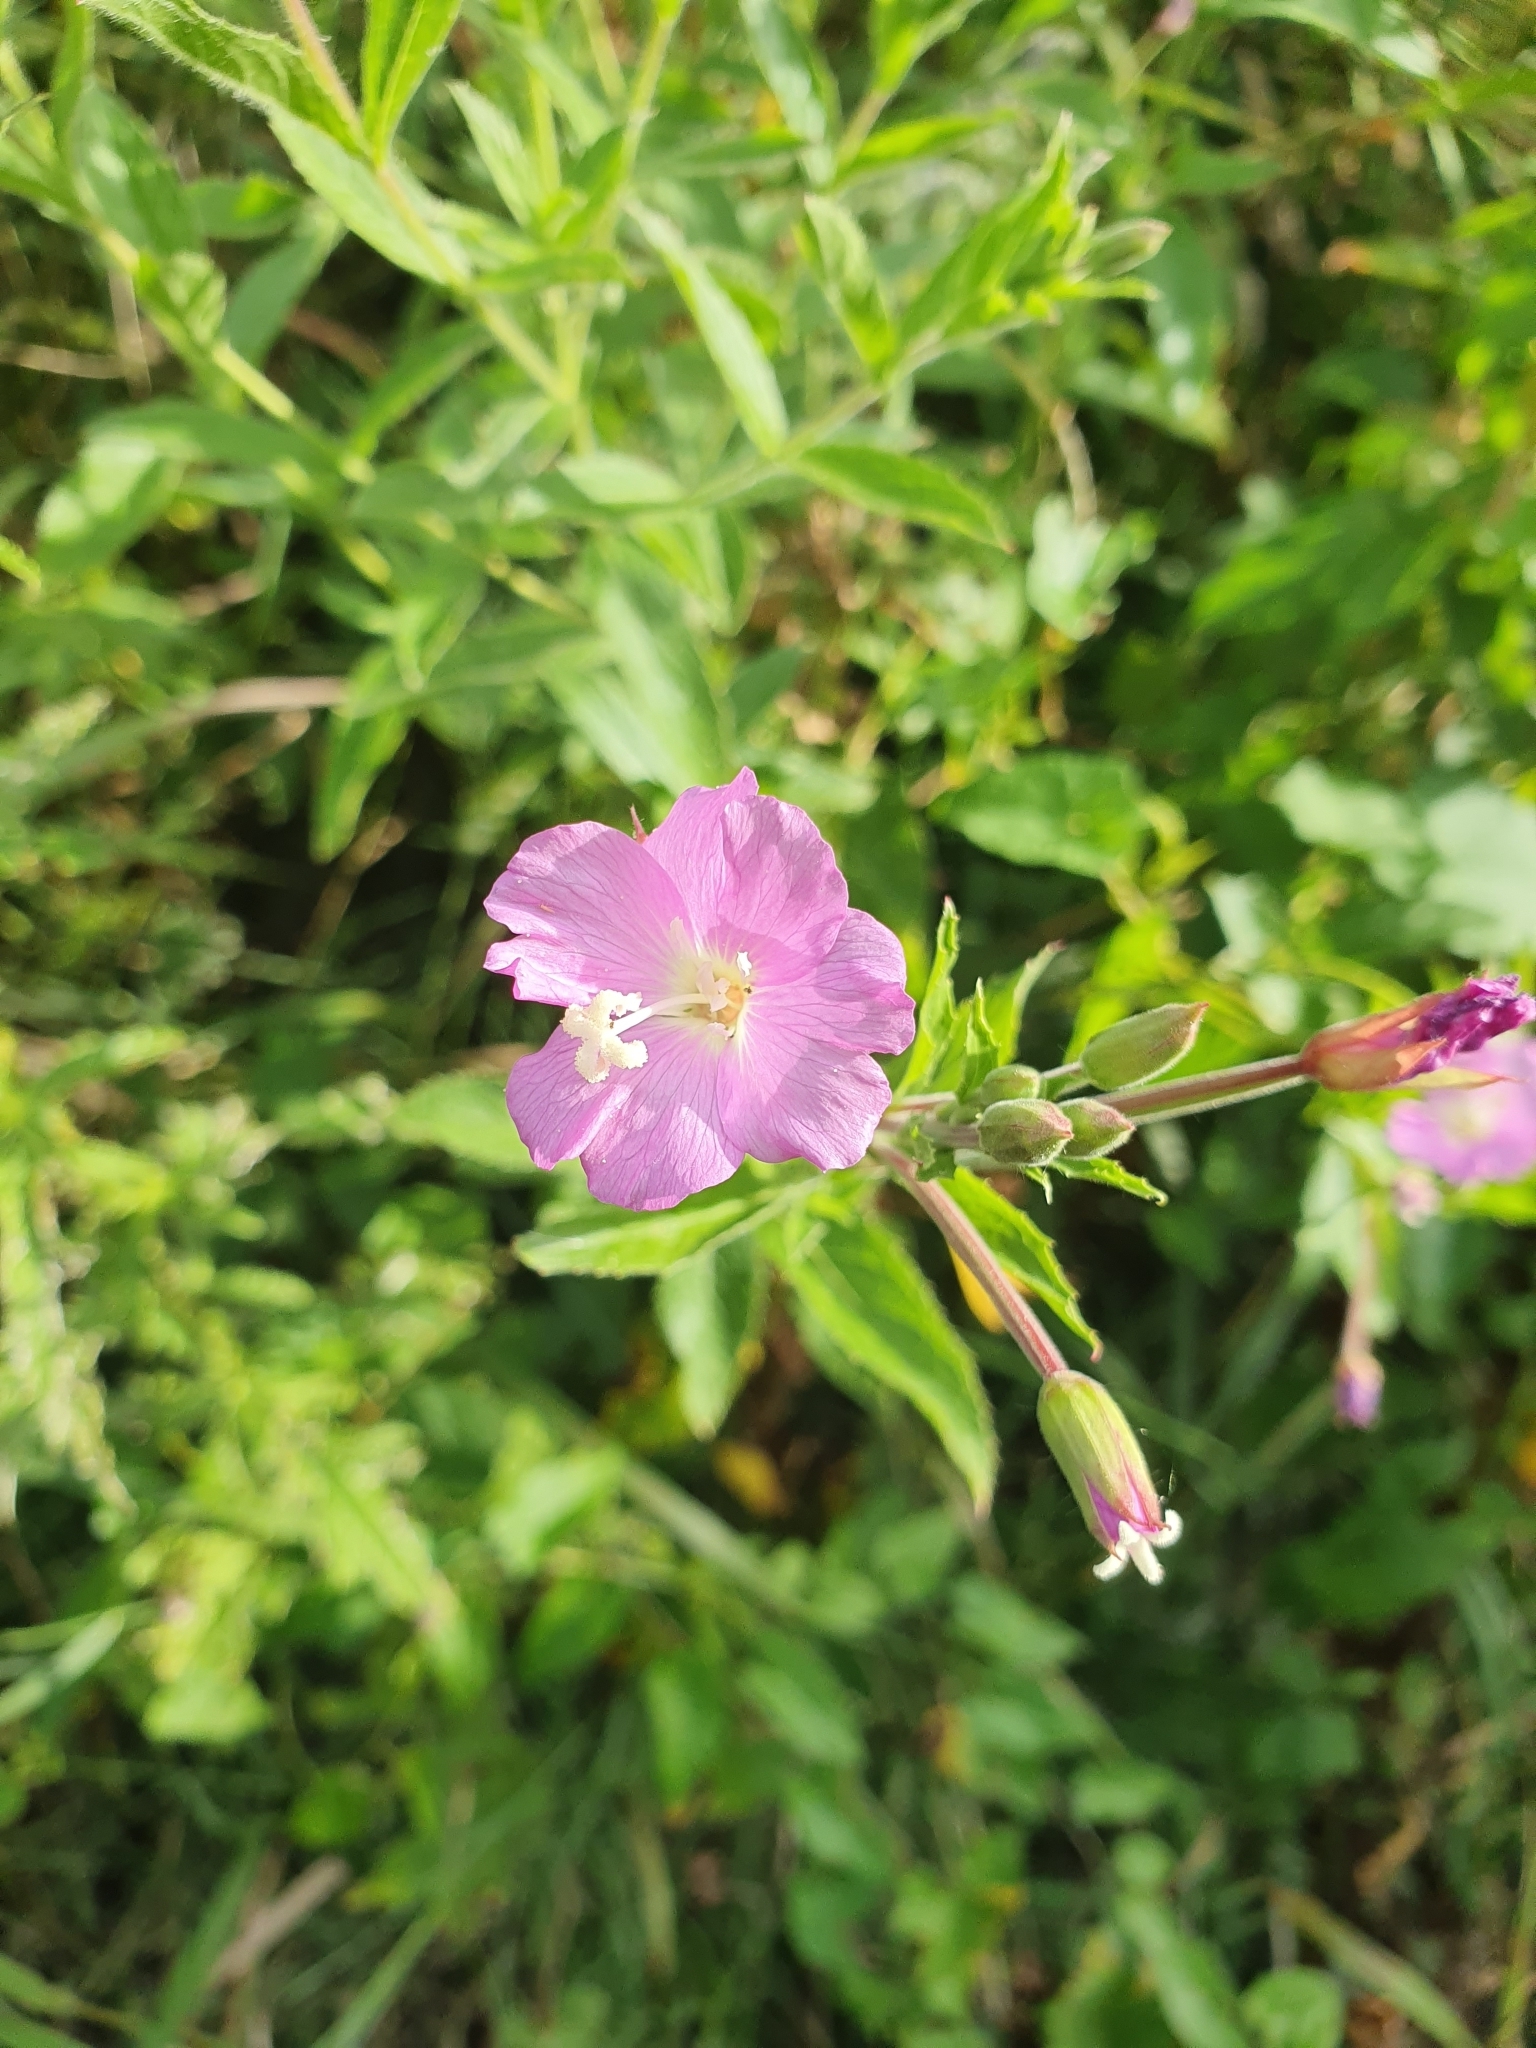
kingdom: Plantae
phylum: Tracheophyta
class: Magnoliopsida
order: Myrtales
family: Onagraceae
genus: Epilobium
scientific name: Epilobium hirsutum
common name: Great willowherb
